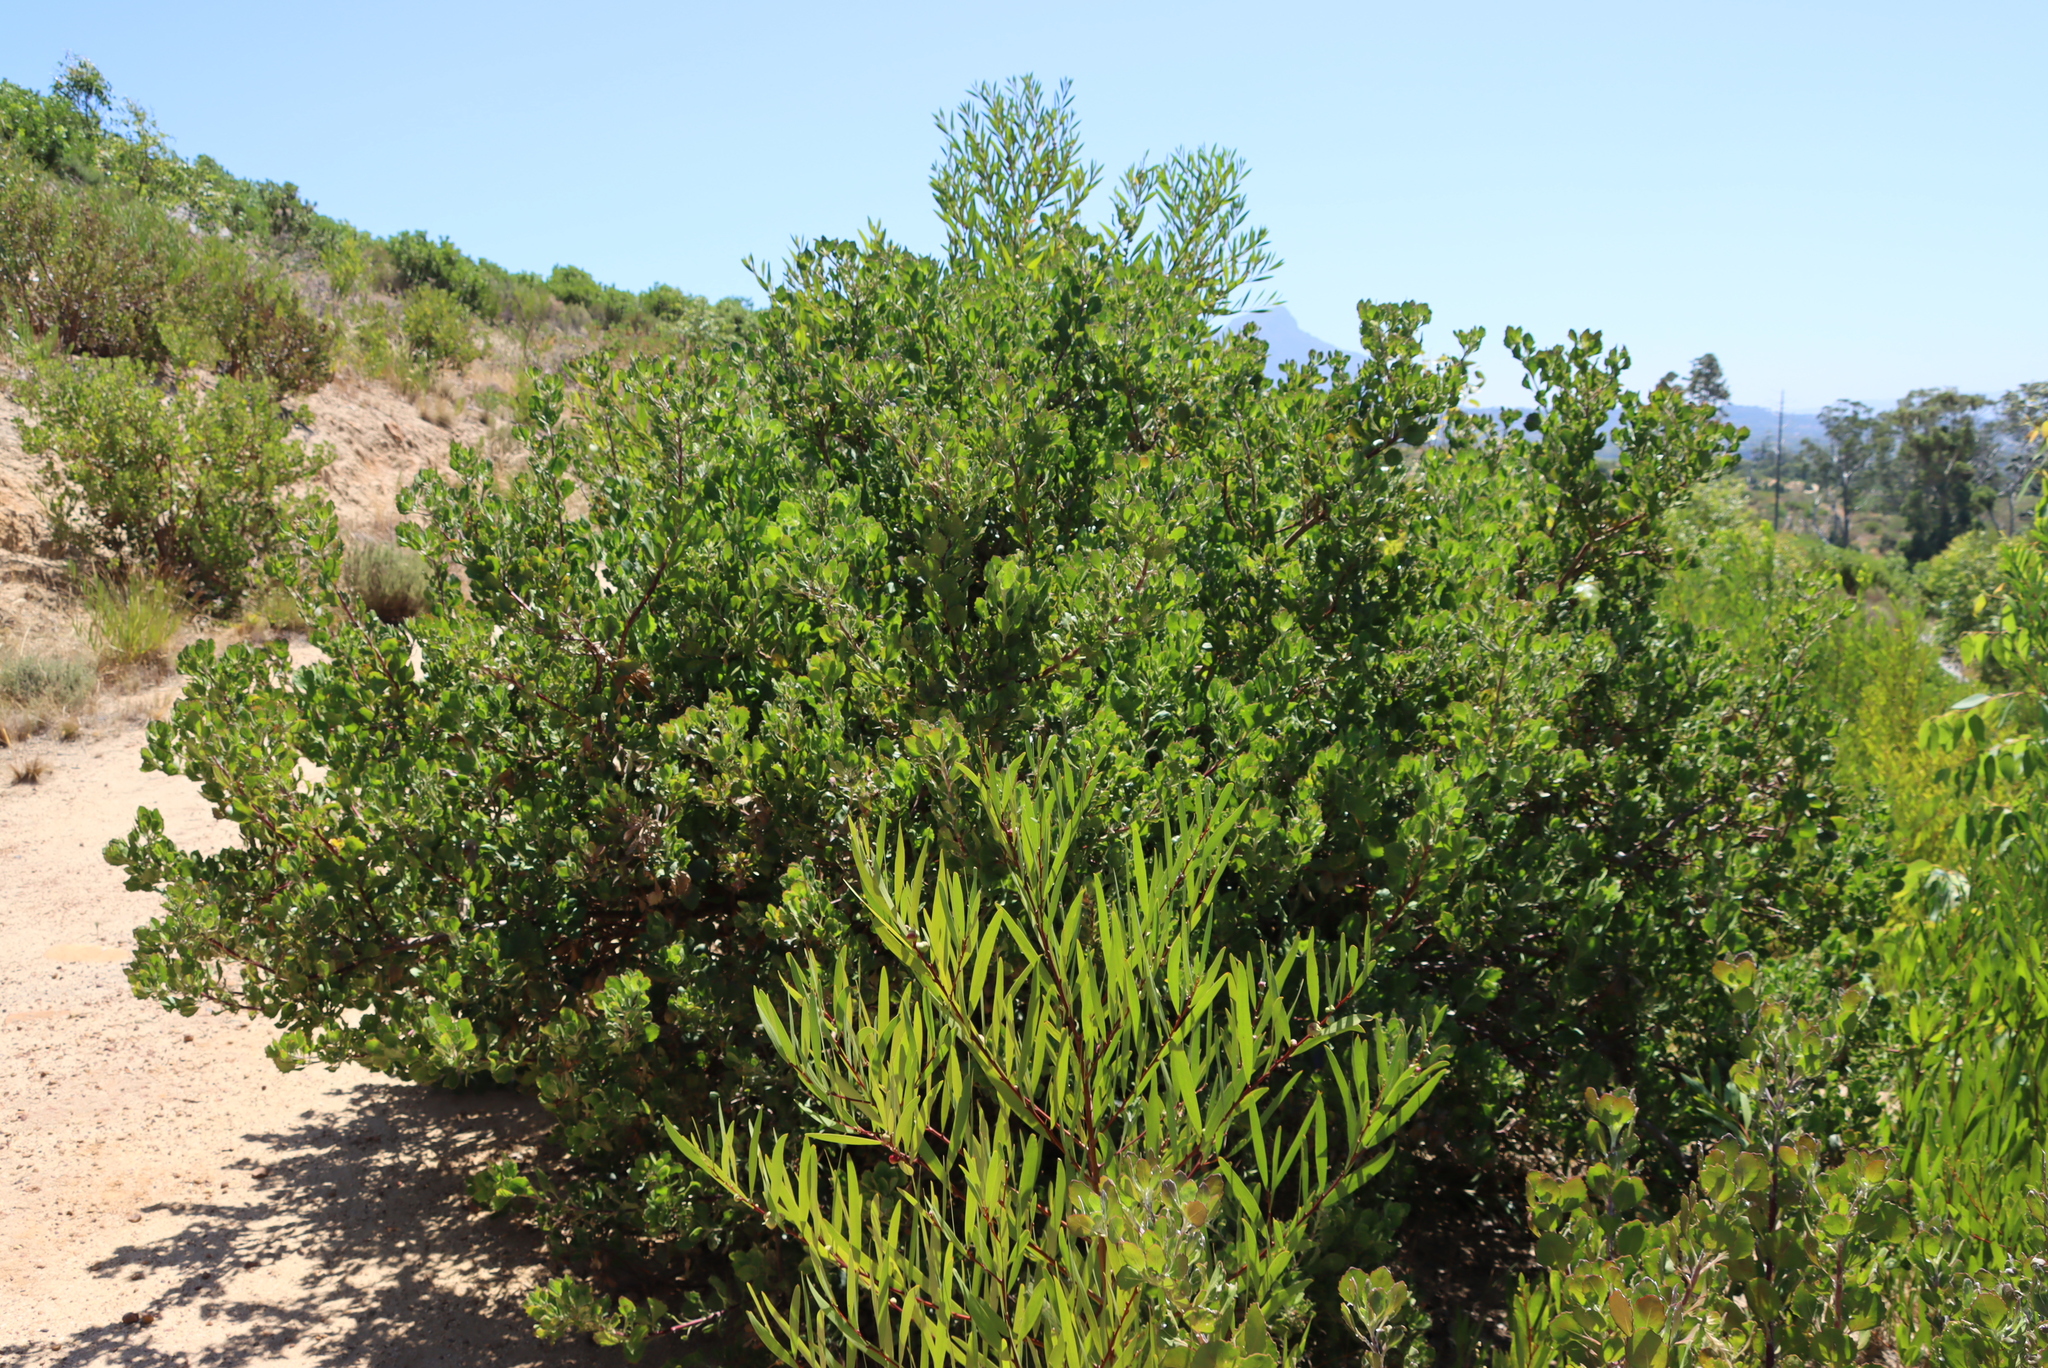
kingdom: Plantae
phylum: Tracheophyta
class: Magnoliopsida
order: Asterales
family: Asteraceae
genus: Osteospermum
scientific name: Osteospermum moniliferum
